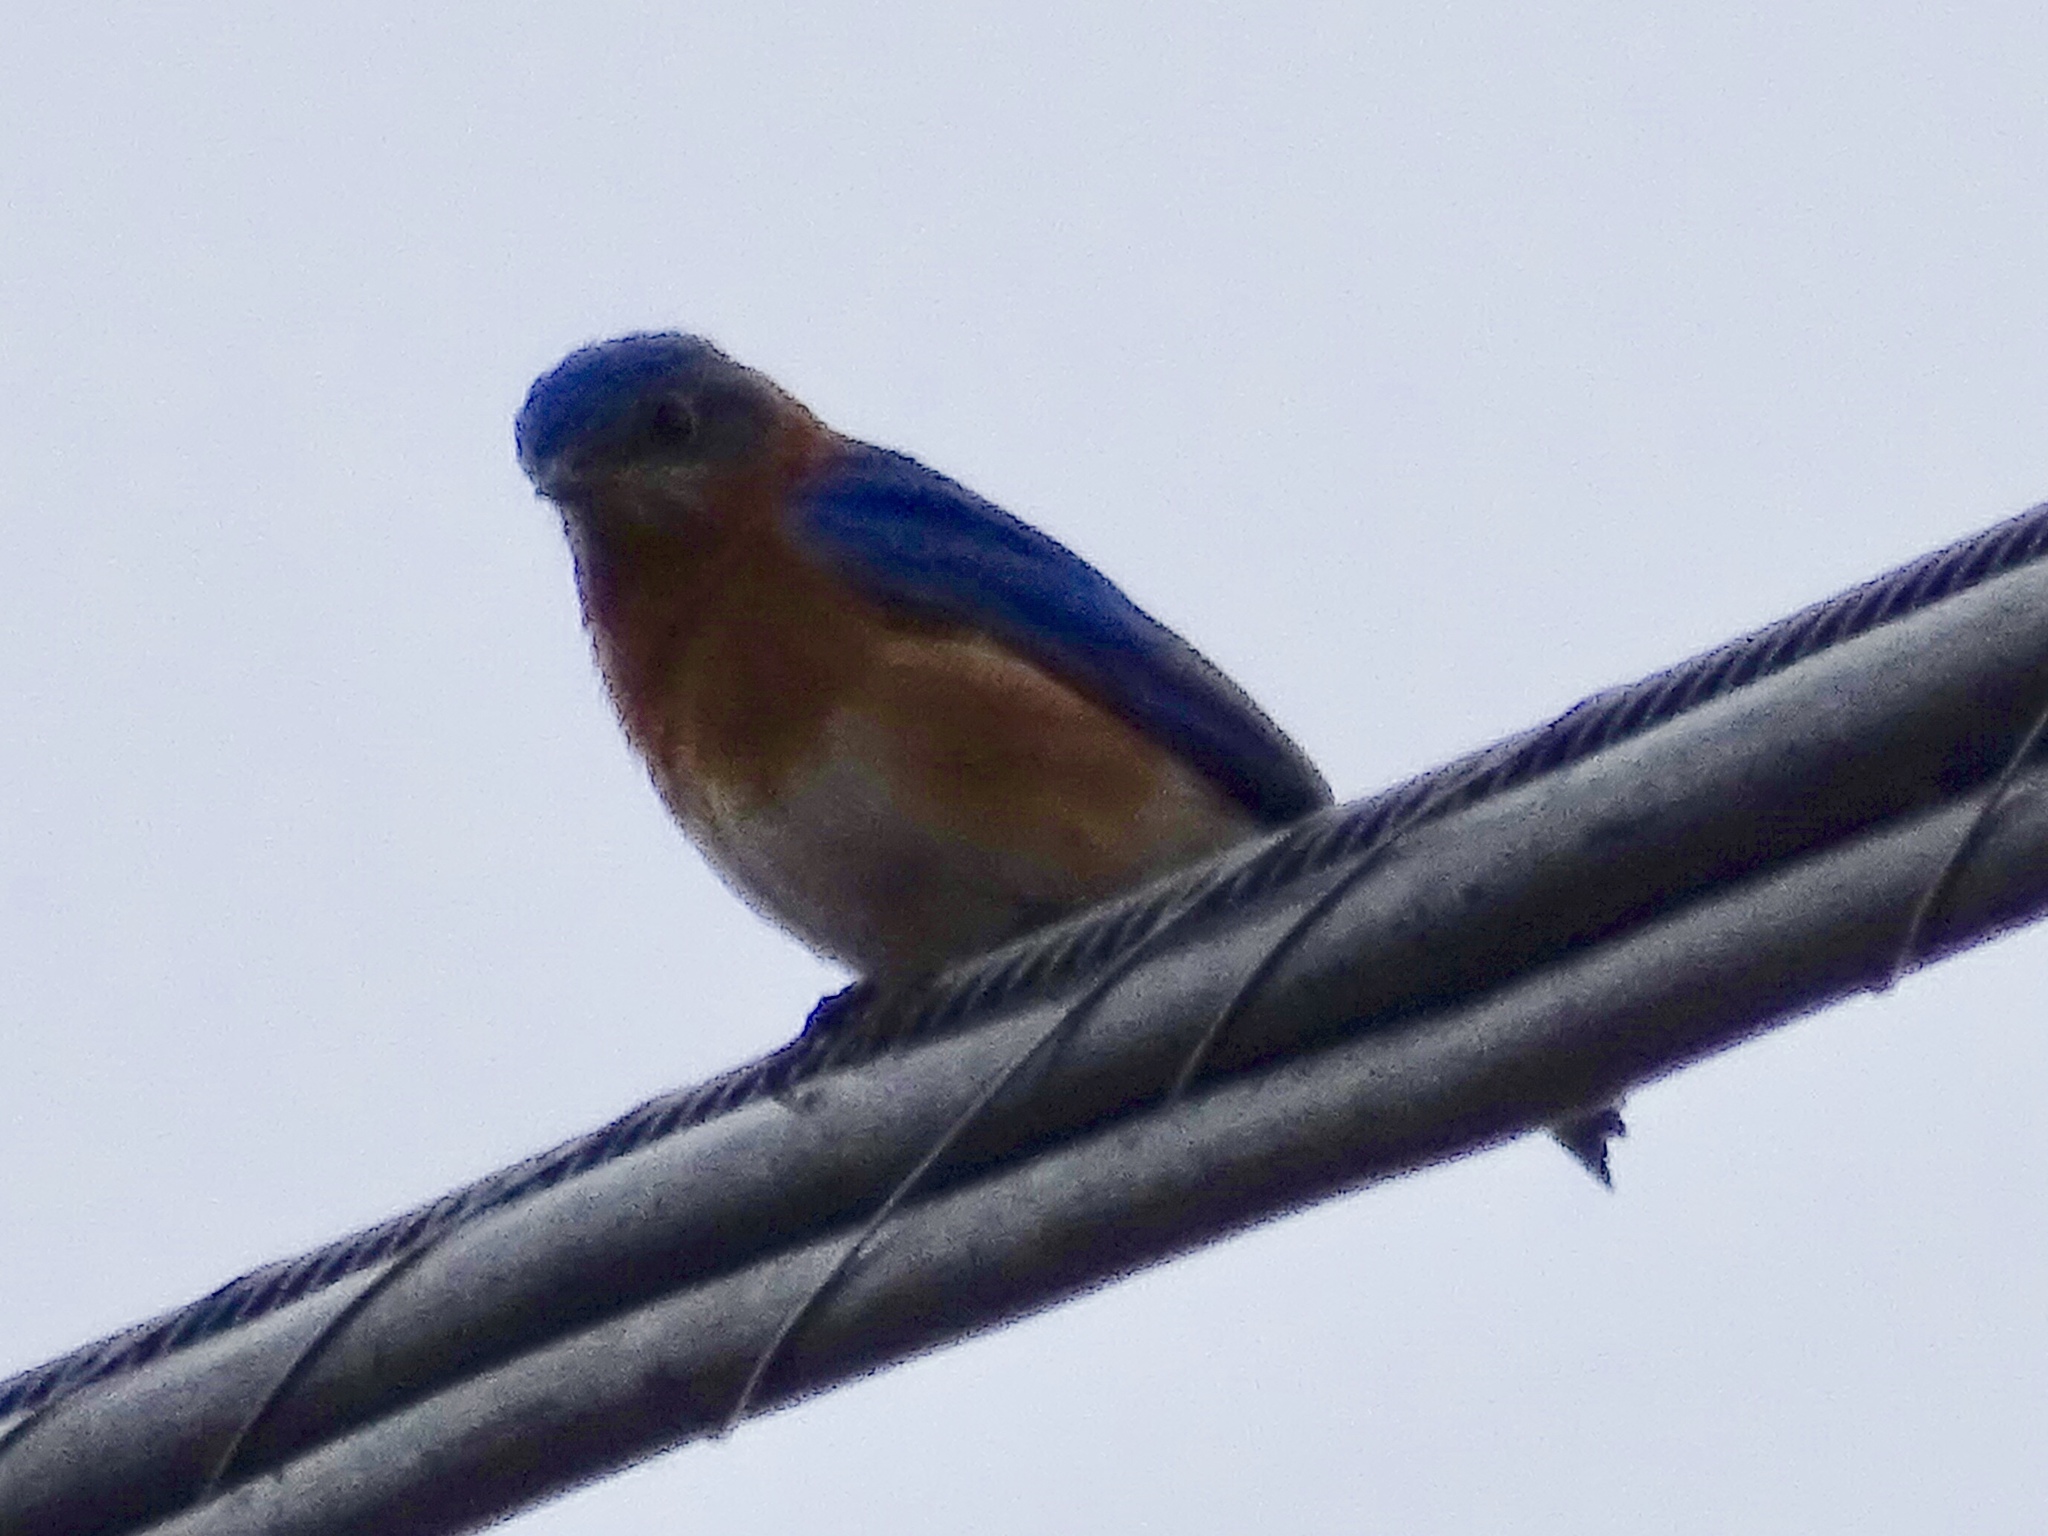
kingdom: Animalia
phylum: Chordata
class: Aves
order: Passeriformes
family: Turdidae
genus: Sialia
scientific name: Sialia sialis
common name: Eastern bluebird
